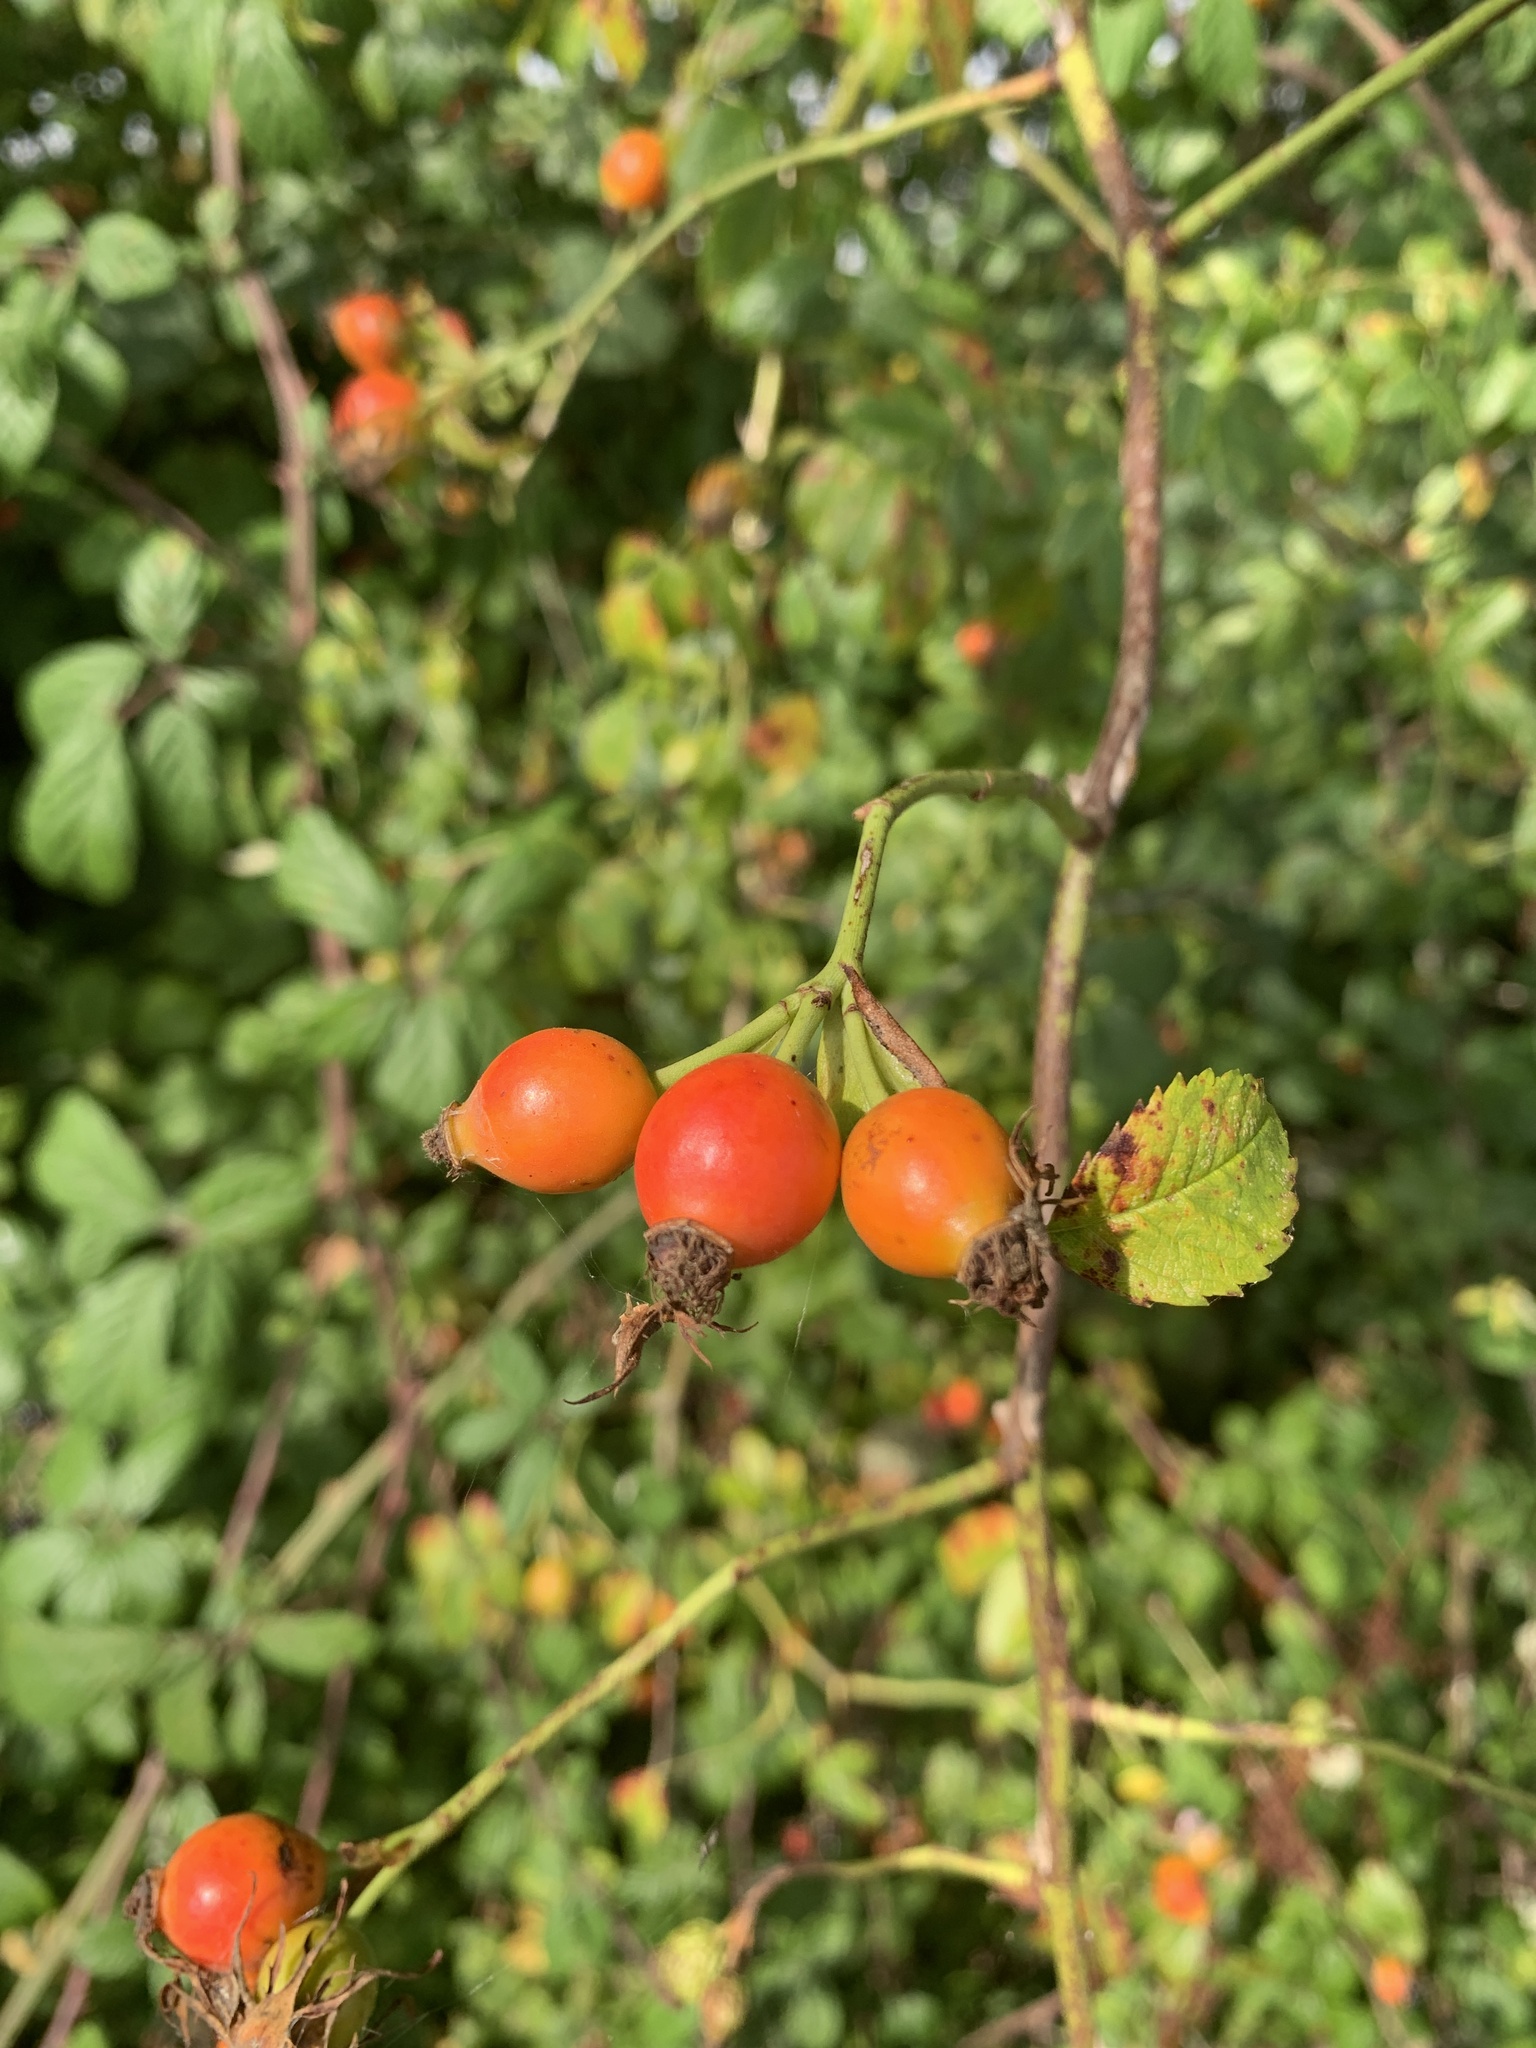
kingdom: Plantae
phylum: Tracheophyta
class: Magnoliopsida
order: Rosales
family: Rosaceae
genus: Rosa
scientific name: Rosa canina
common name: Dog rose
